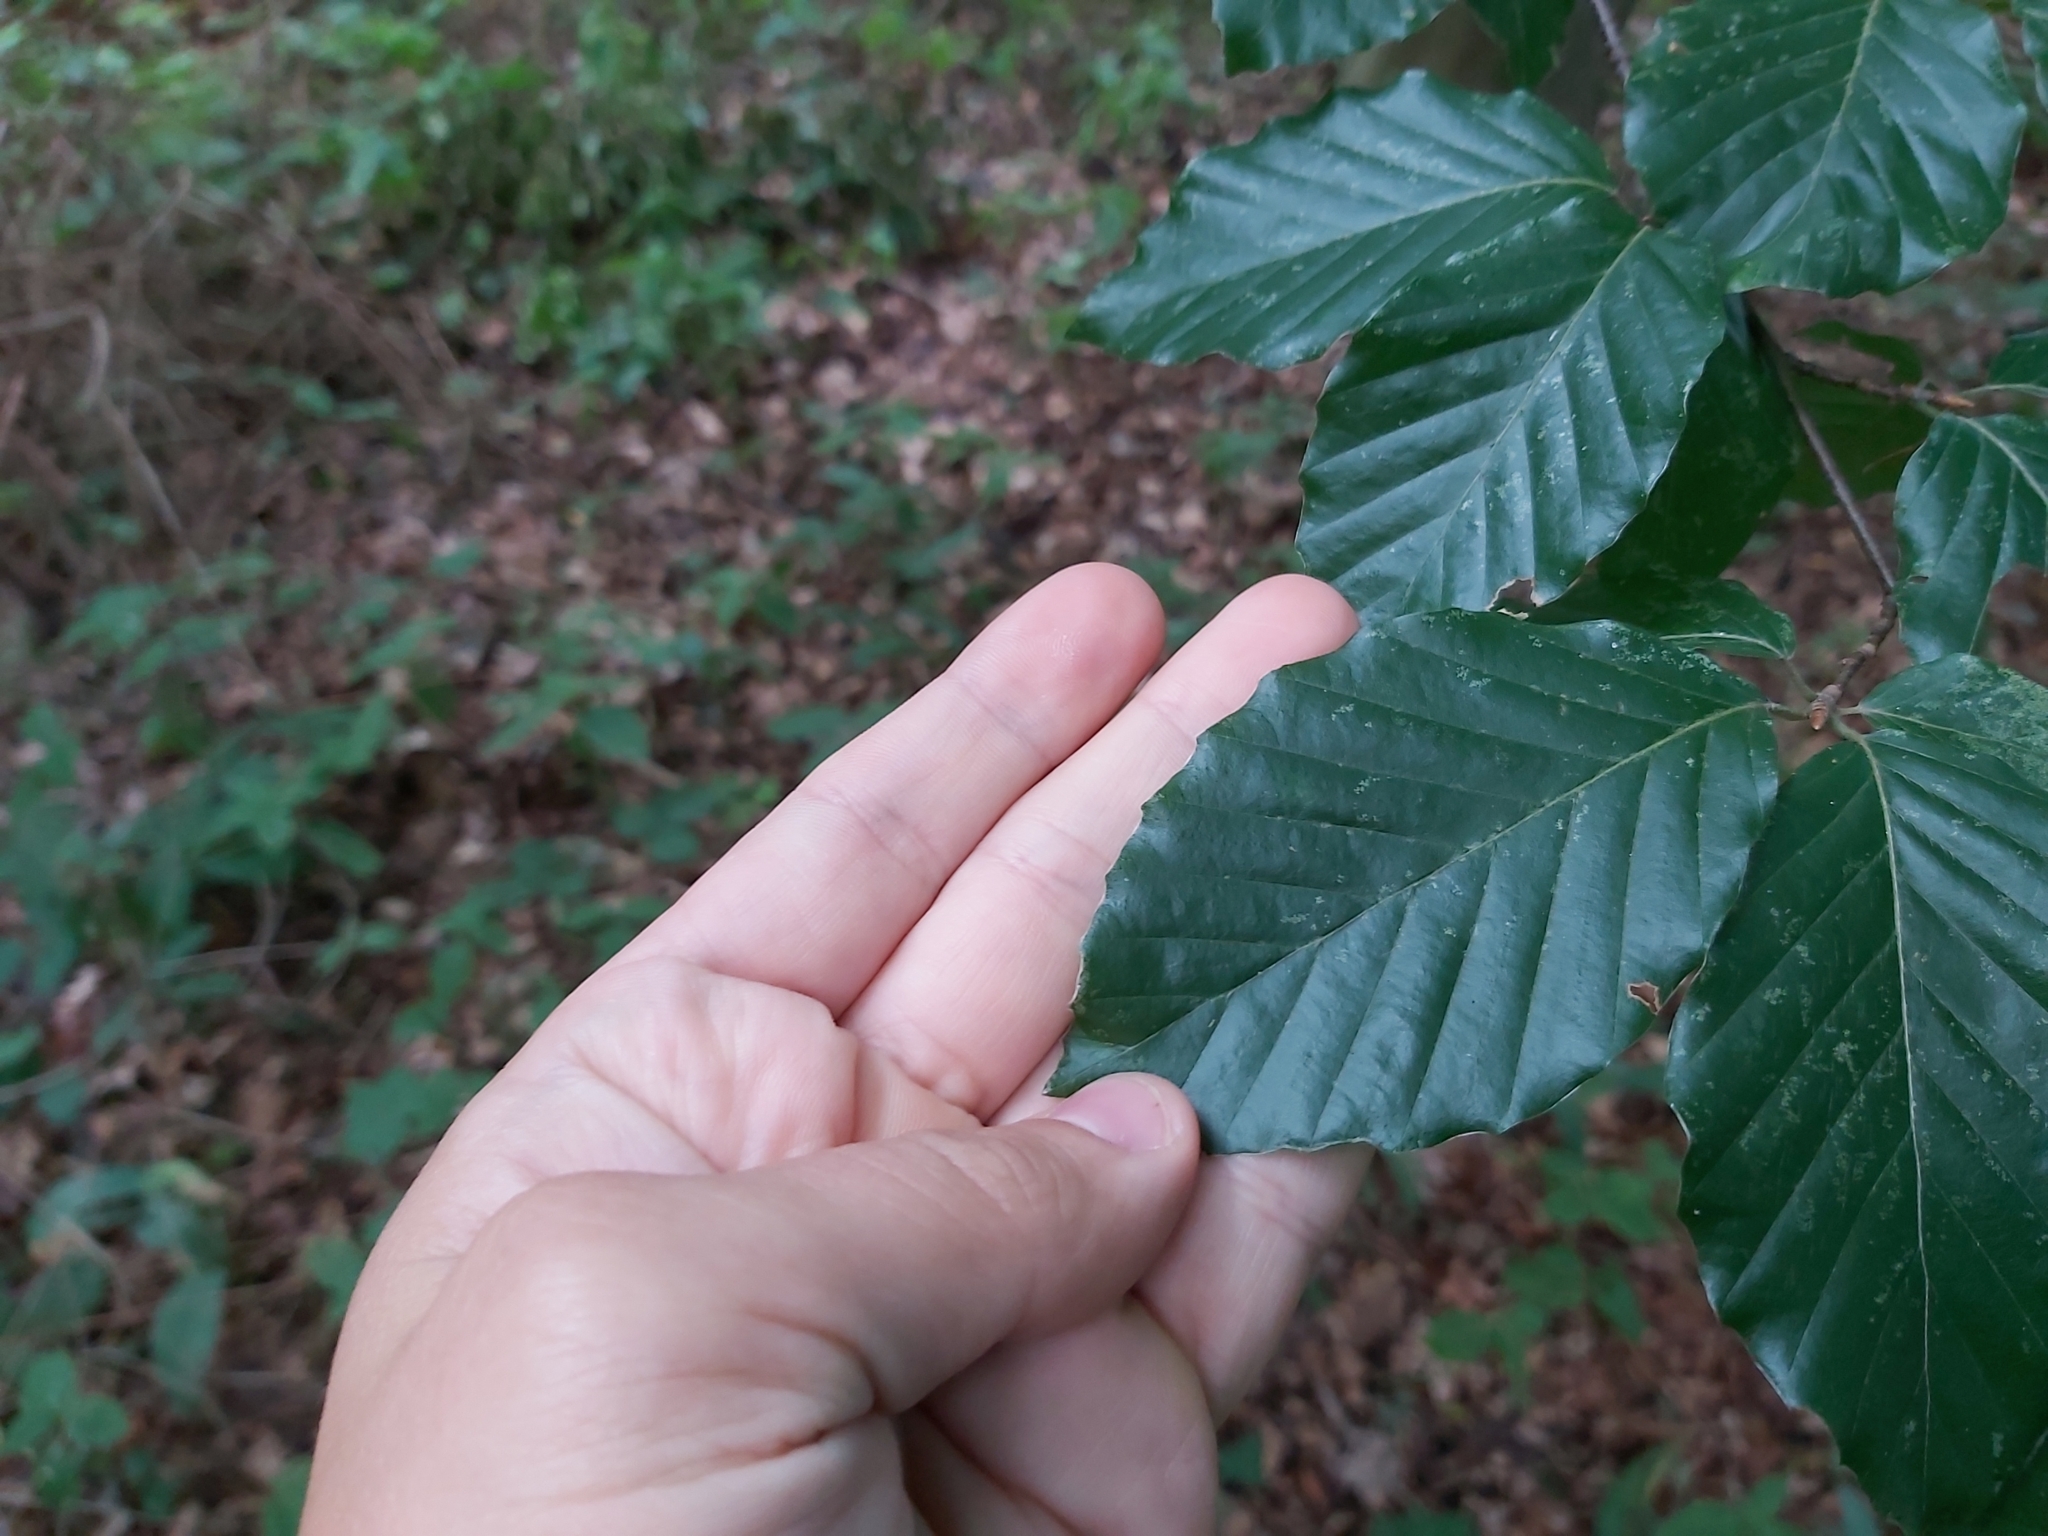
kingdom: Plantae
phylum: Tracheophyta
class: Magnoliopsida
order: Fagales
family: Fagaceae
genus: Fagus
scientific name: Fagus sylvatica
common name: Beech
